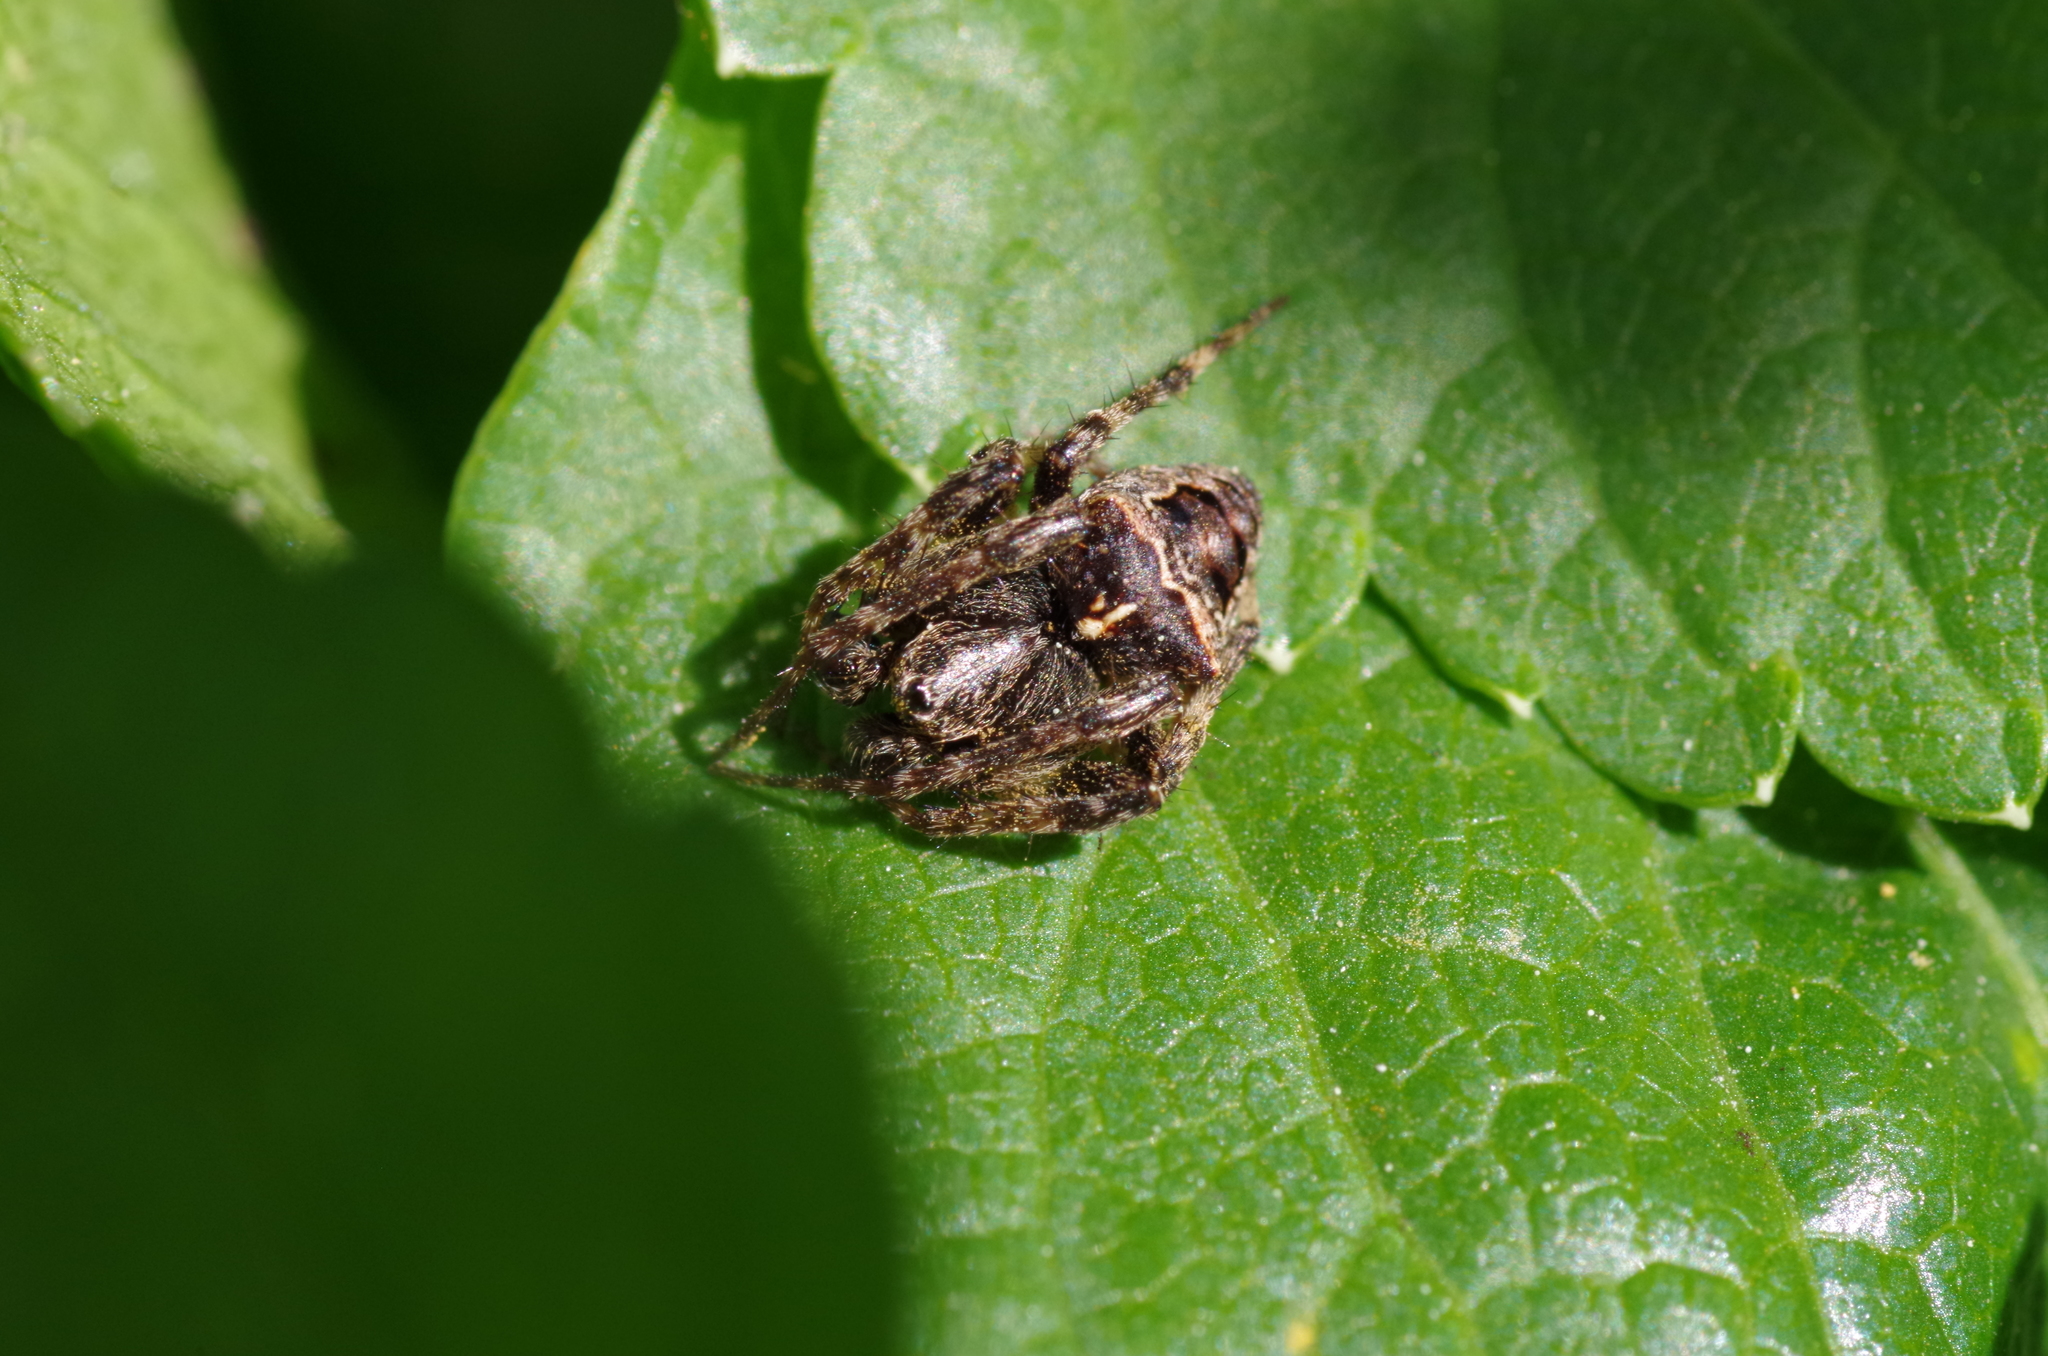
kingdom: Animalia
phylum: Arthropoda
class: Arachnida
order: Araneae
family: Araneidae
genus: Gibbaranea
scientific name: Gibbaranea bituberculata
